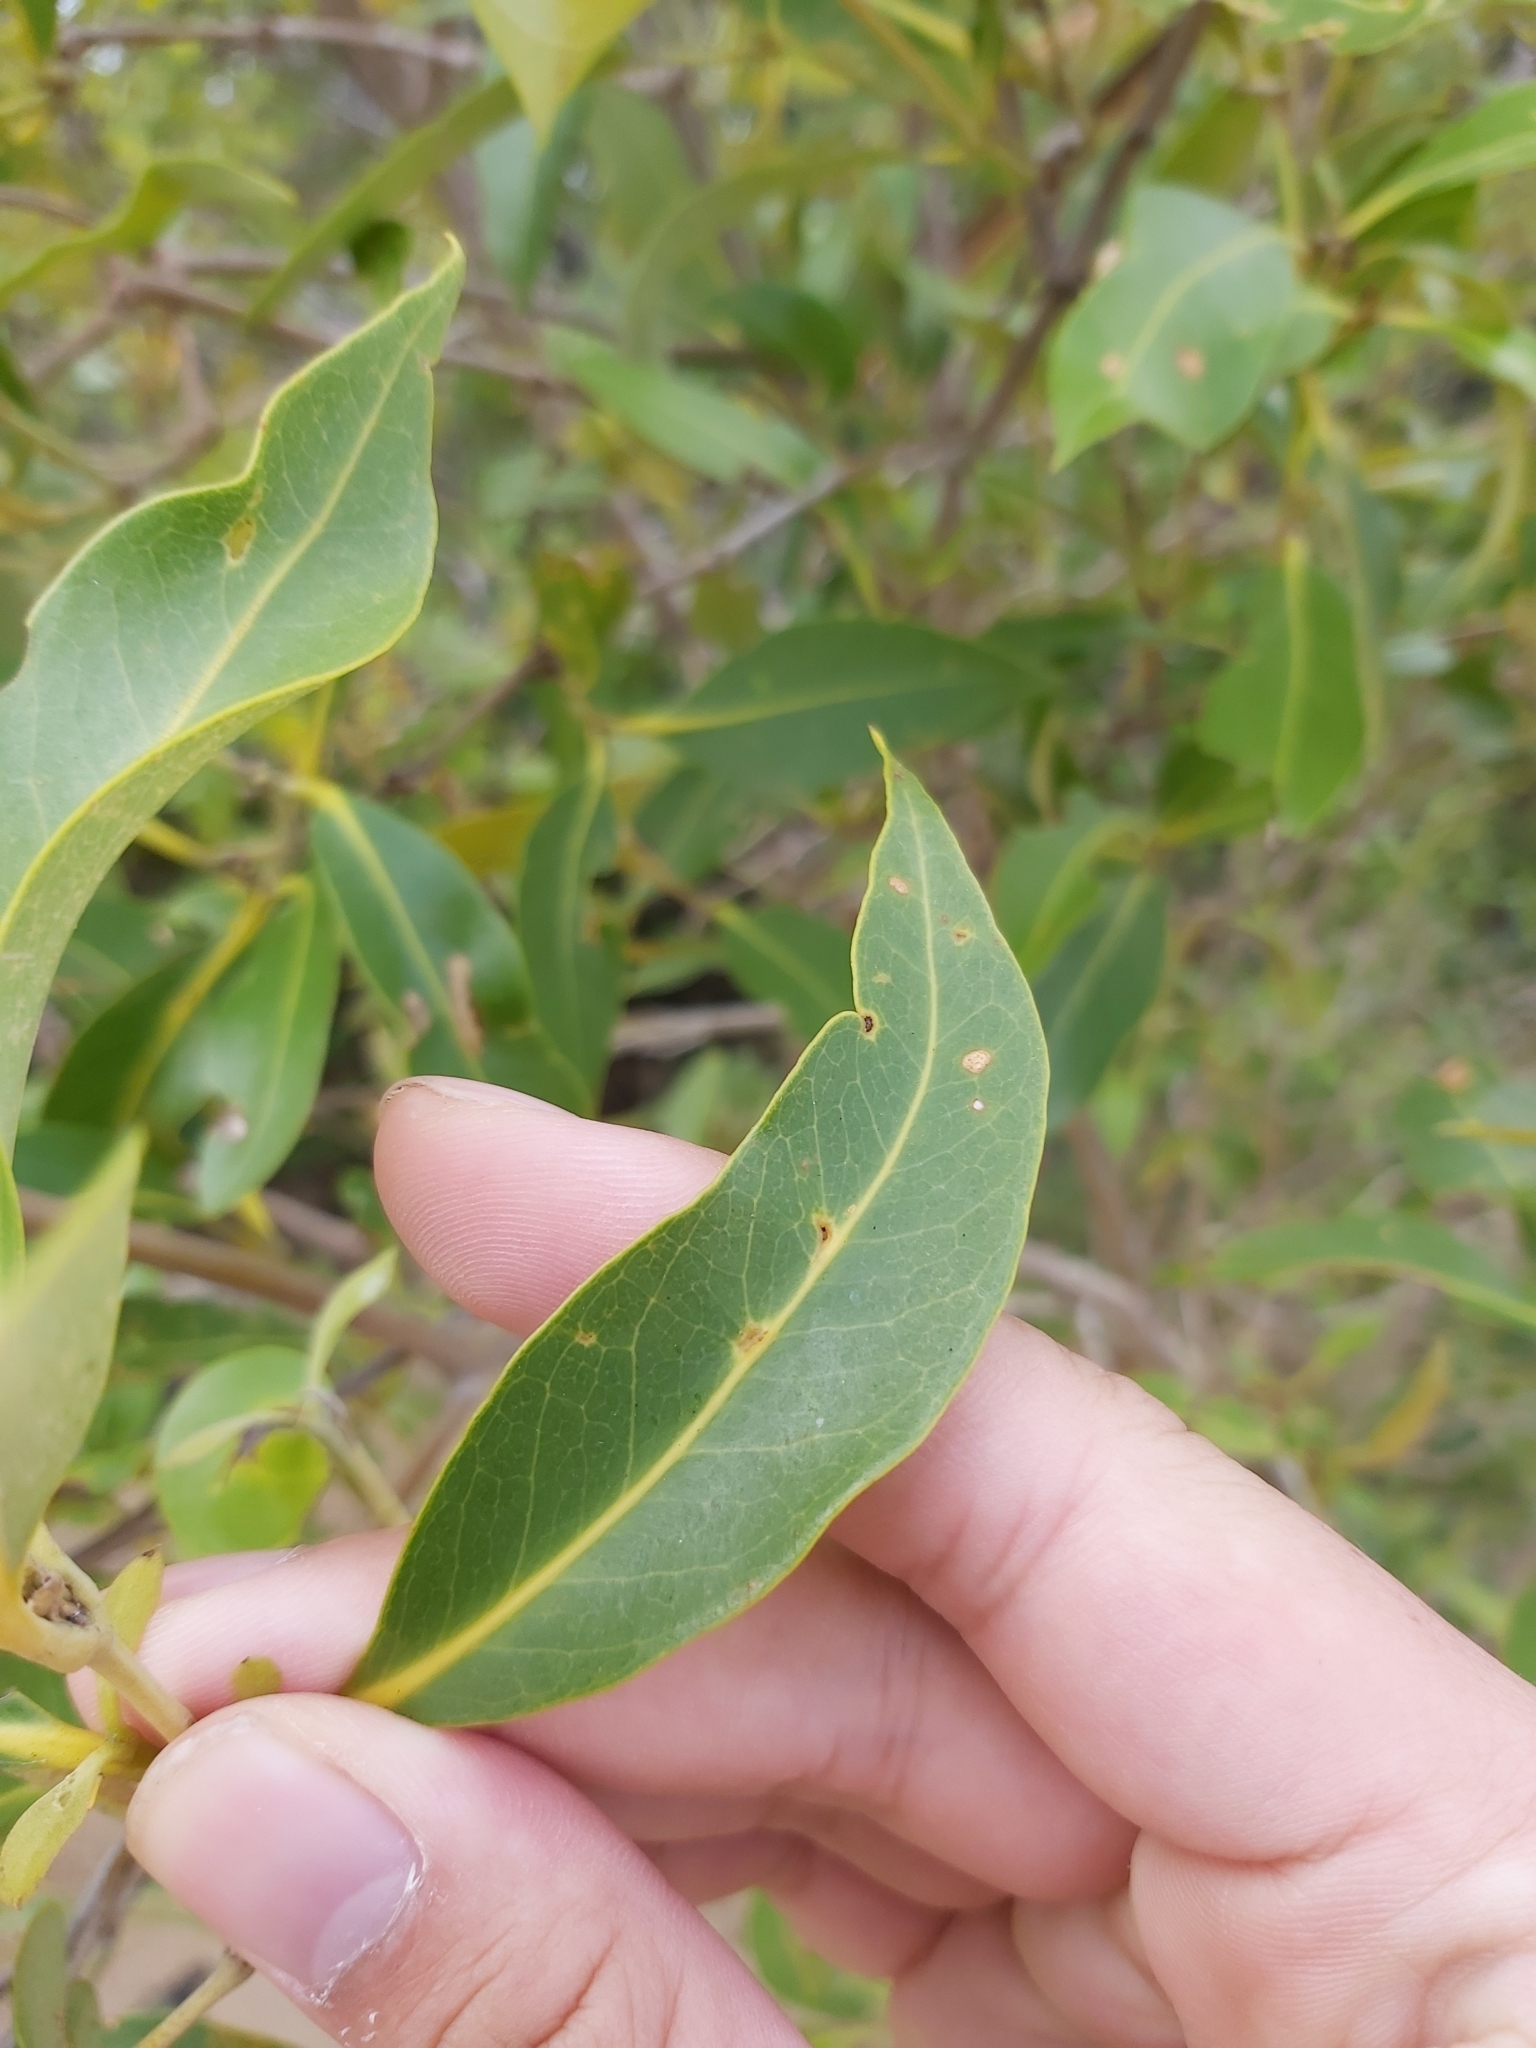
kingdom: Plantae
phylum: Tracheophyta
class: Magnoliopsida
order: Lamiales
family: Acanthaceae
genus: Avicennia
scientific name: Avicennia marina
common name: Gray mangrove
